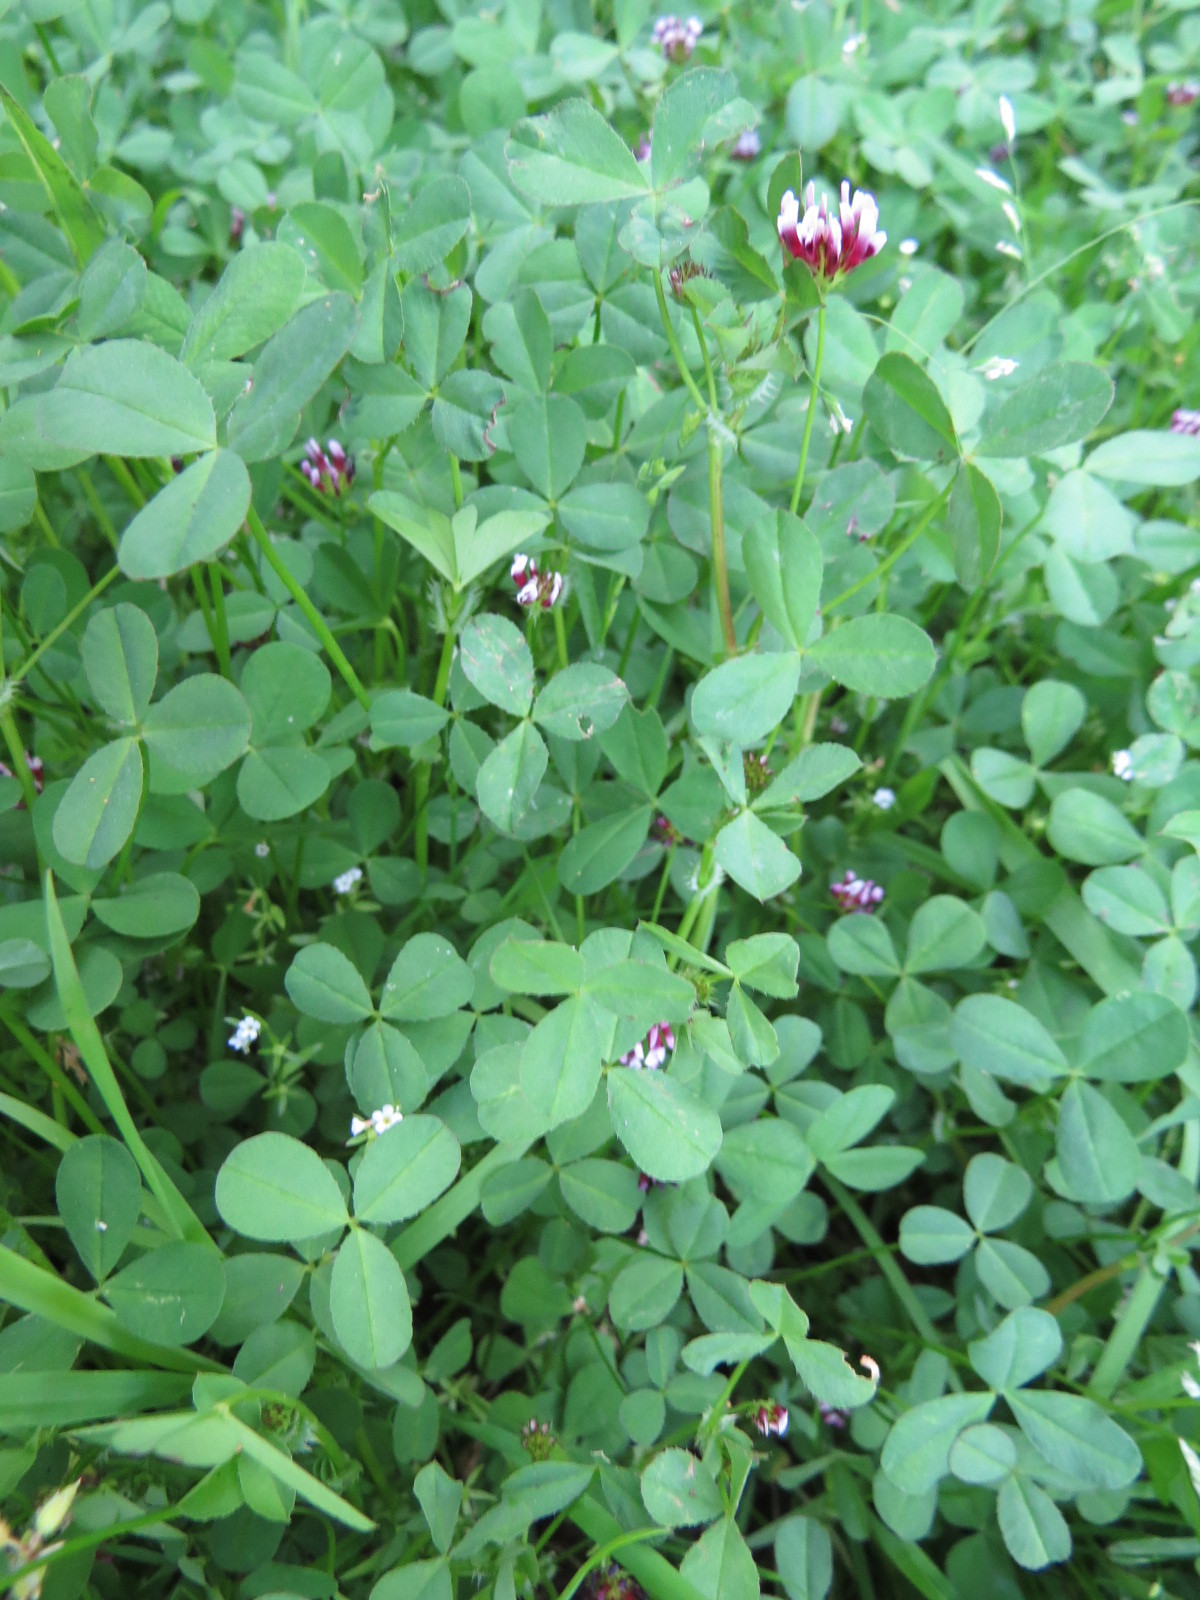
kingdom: Plantae
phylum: Tracheophyta
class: Magnoliopsida
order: Fabales
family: Fabaceae
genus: Trifolium
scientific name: Trifolium willdenovii
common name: Tomcat clover
